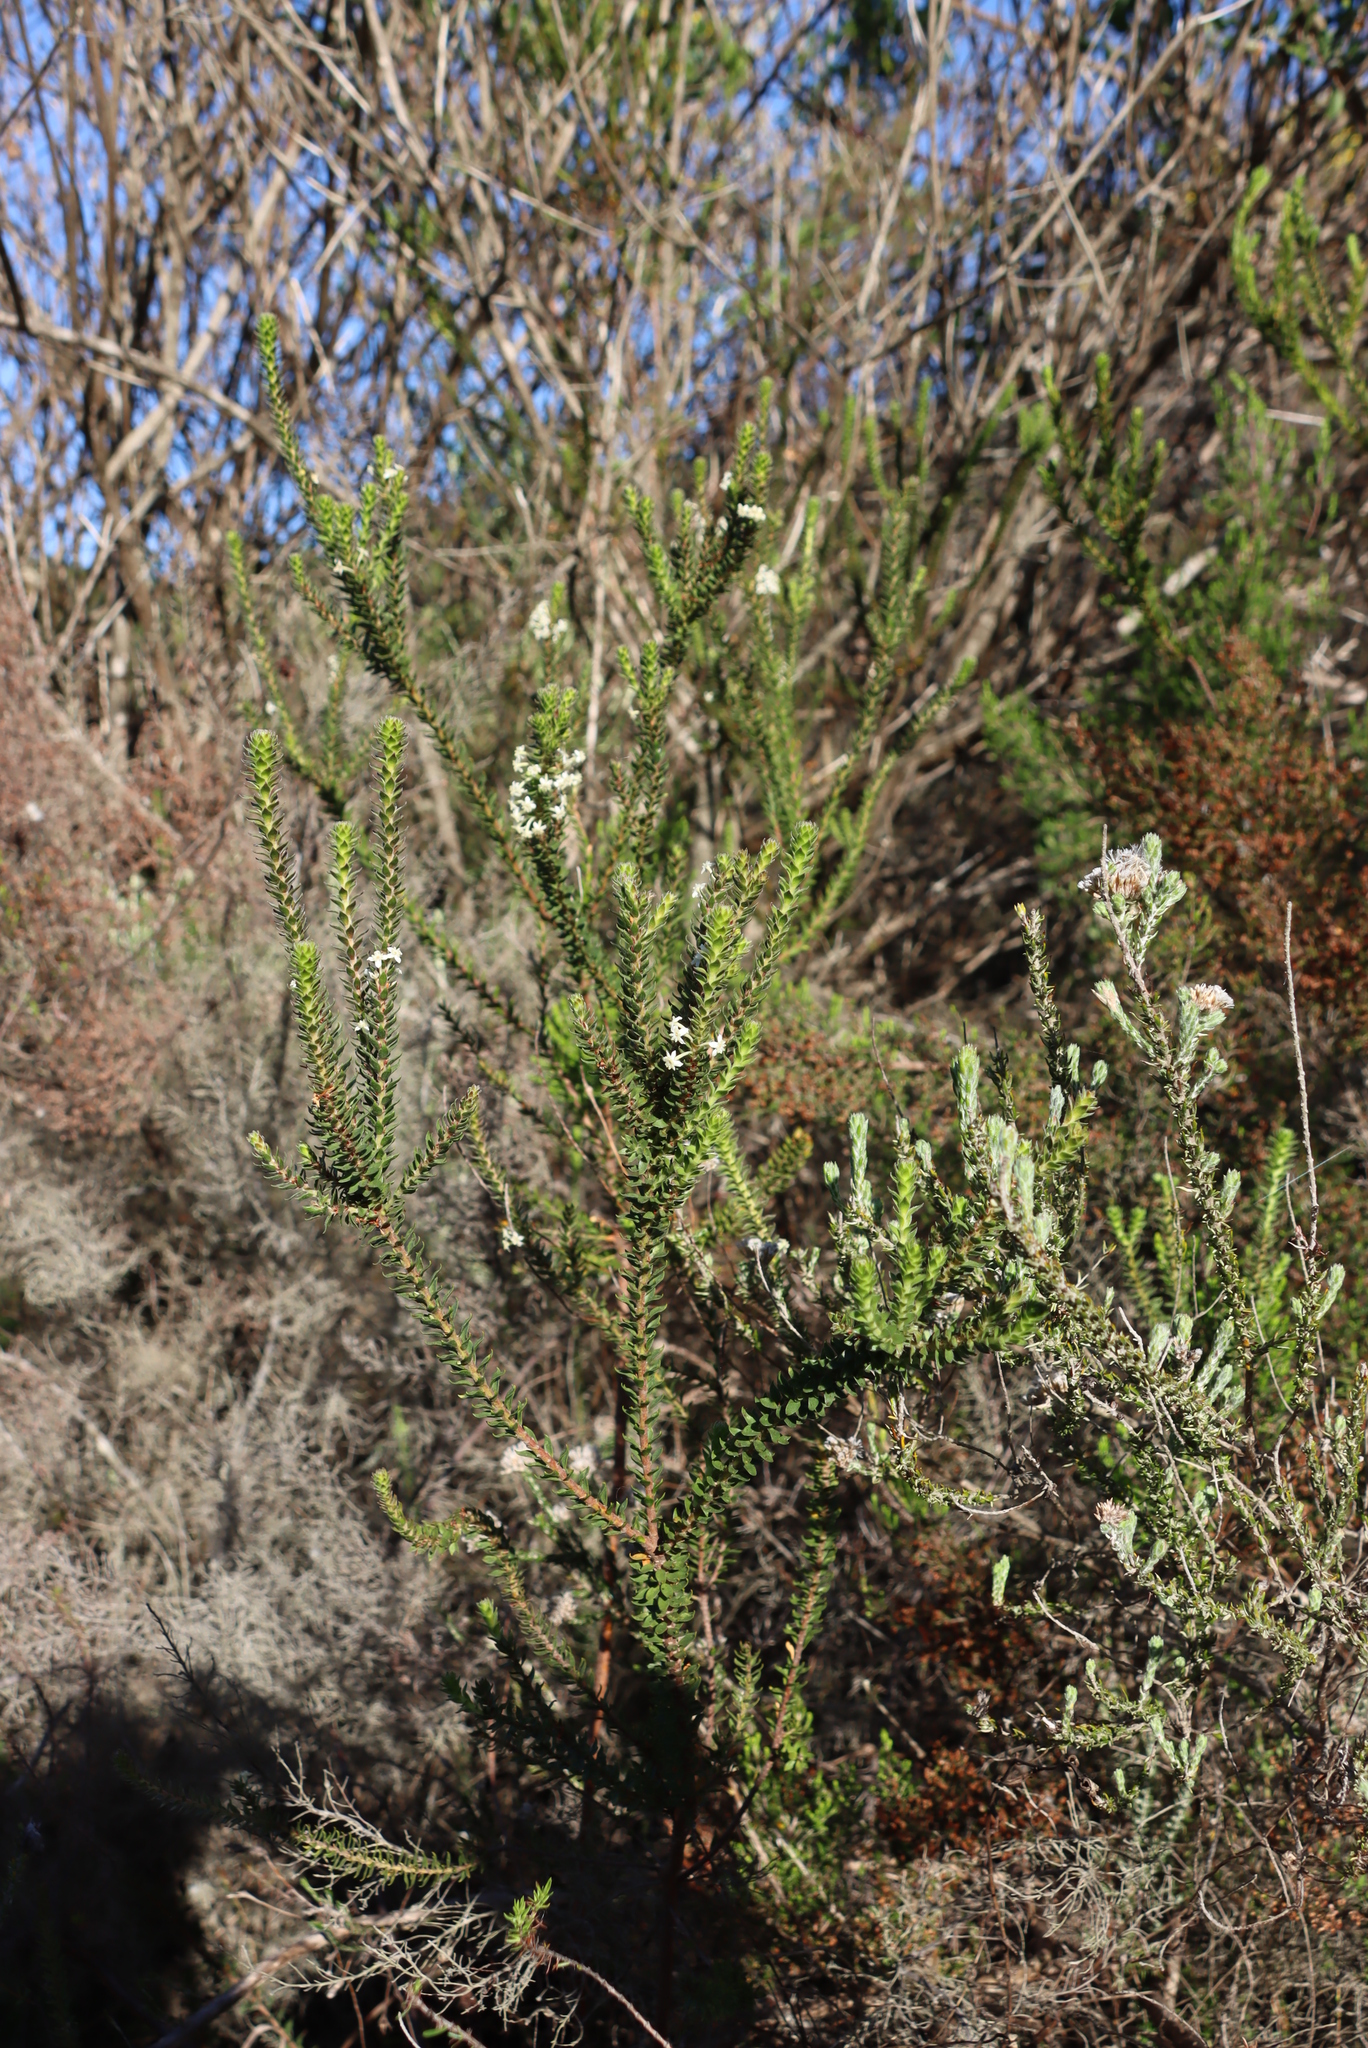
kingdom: Plantae
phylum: Tracheophyta
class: Magnoliopsida
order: Malvales
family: Thymelaeaceae
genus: Struthiola
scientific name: Struthiola hirsuta
